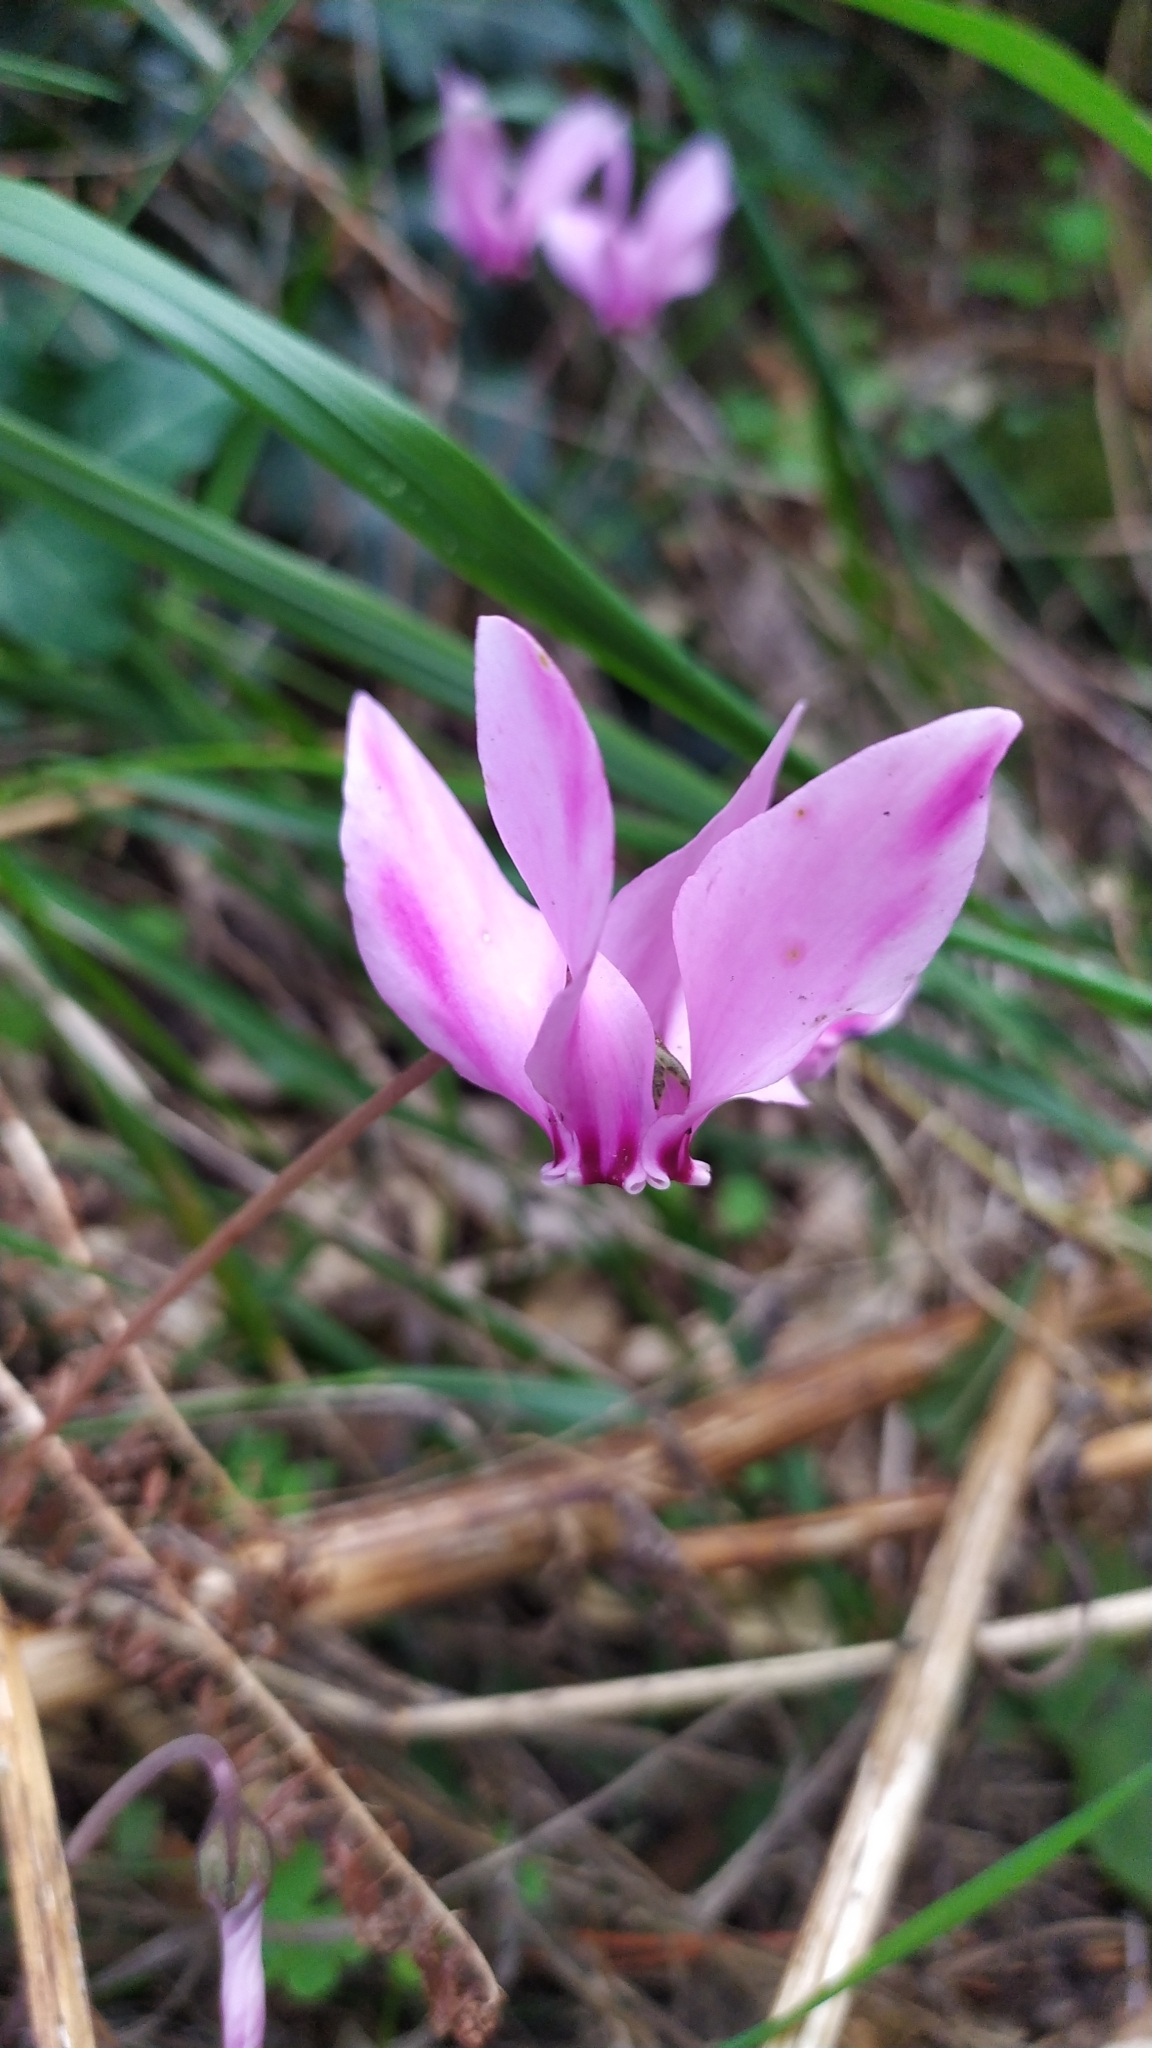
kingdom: Plantae
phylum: Tracheophyta
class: Magnoliopsida
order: Ericales
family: Primulaceae
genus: Cyclamen
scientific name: Cyclamen hederifolium
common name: Sowbread
